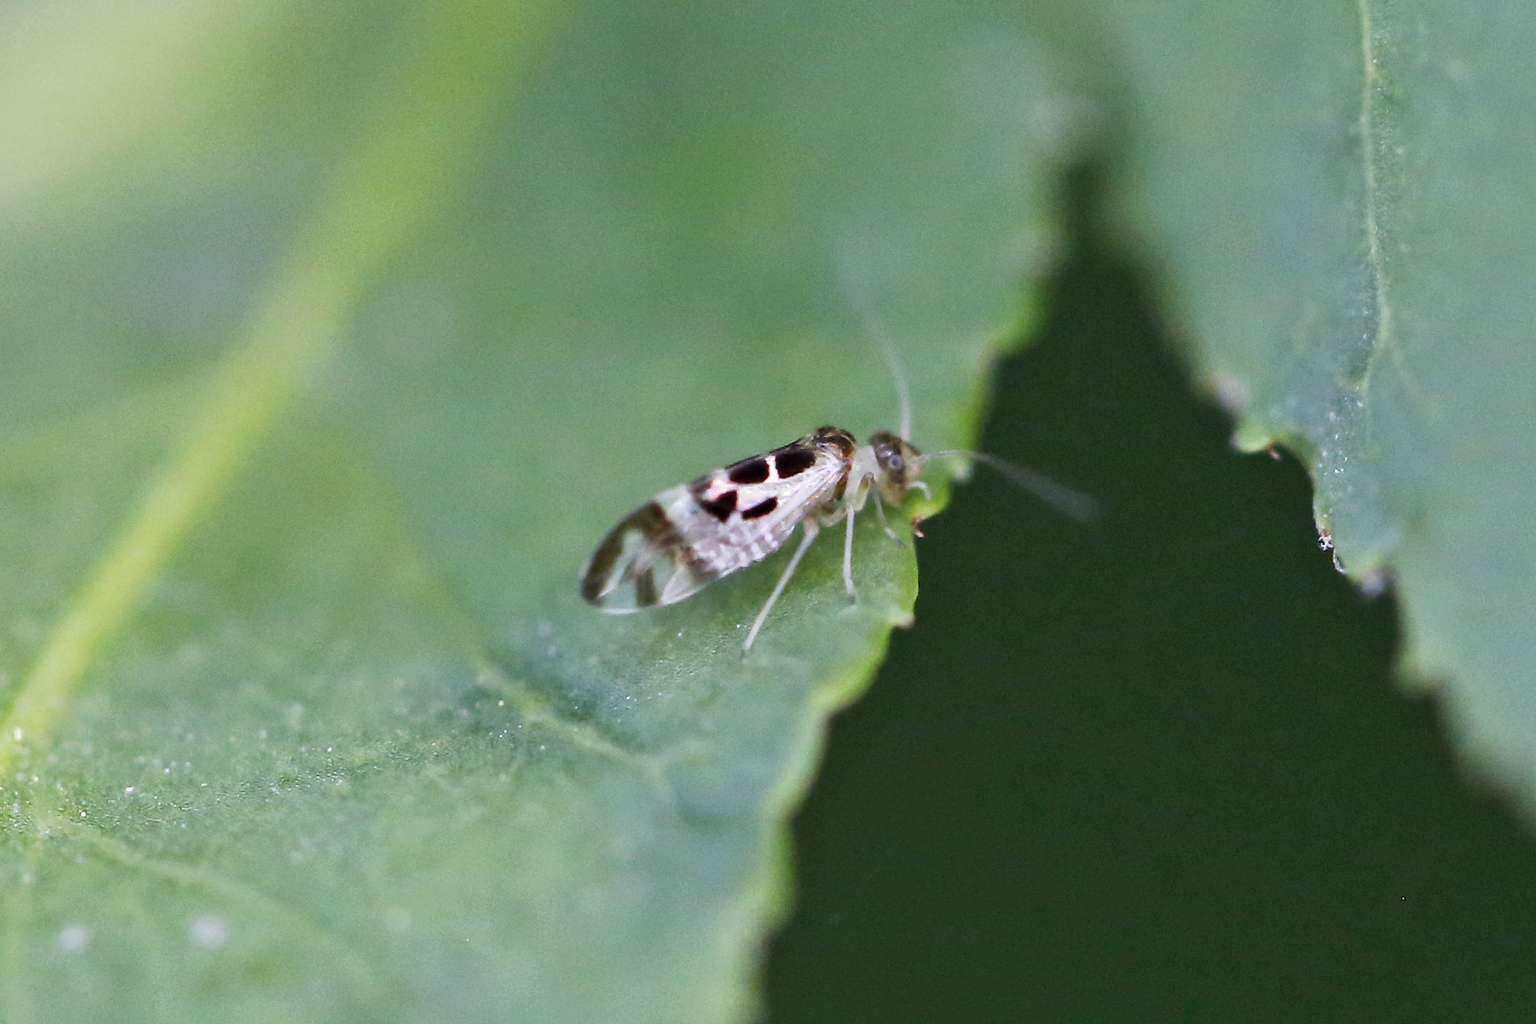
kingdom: Animalia
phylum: Arthropoda
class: Insecta
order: Psocodea
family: Stenopsocidae
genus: Graphopsocus
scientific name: Graphopsocus cruciatus
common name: Lizard bark louse
